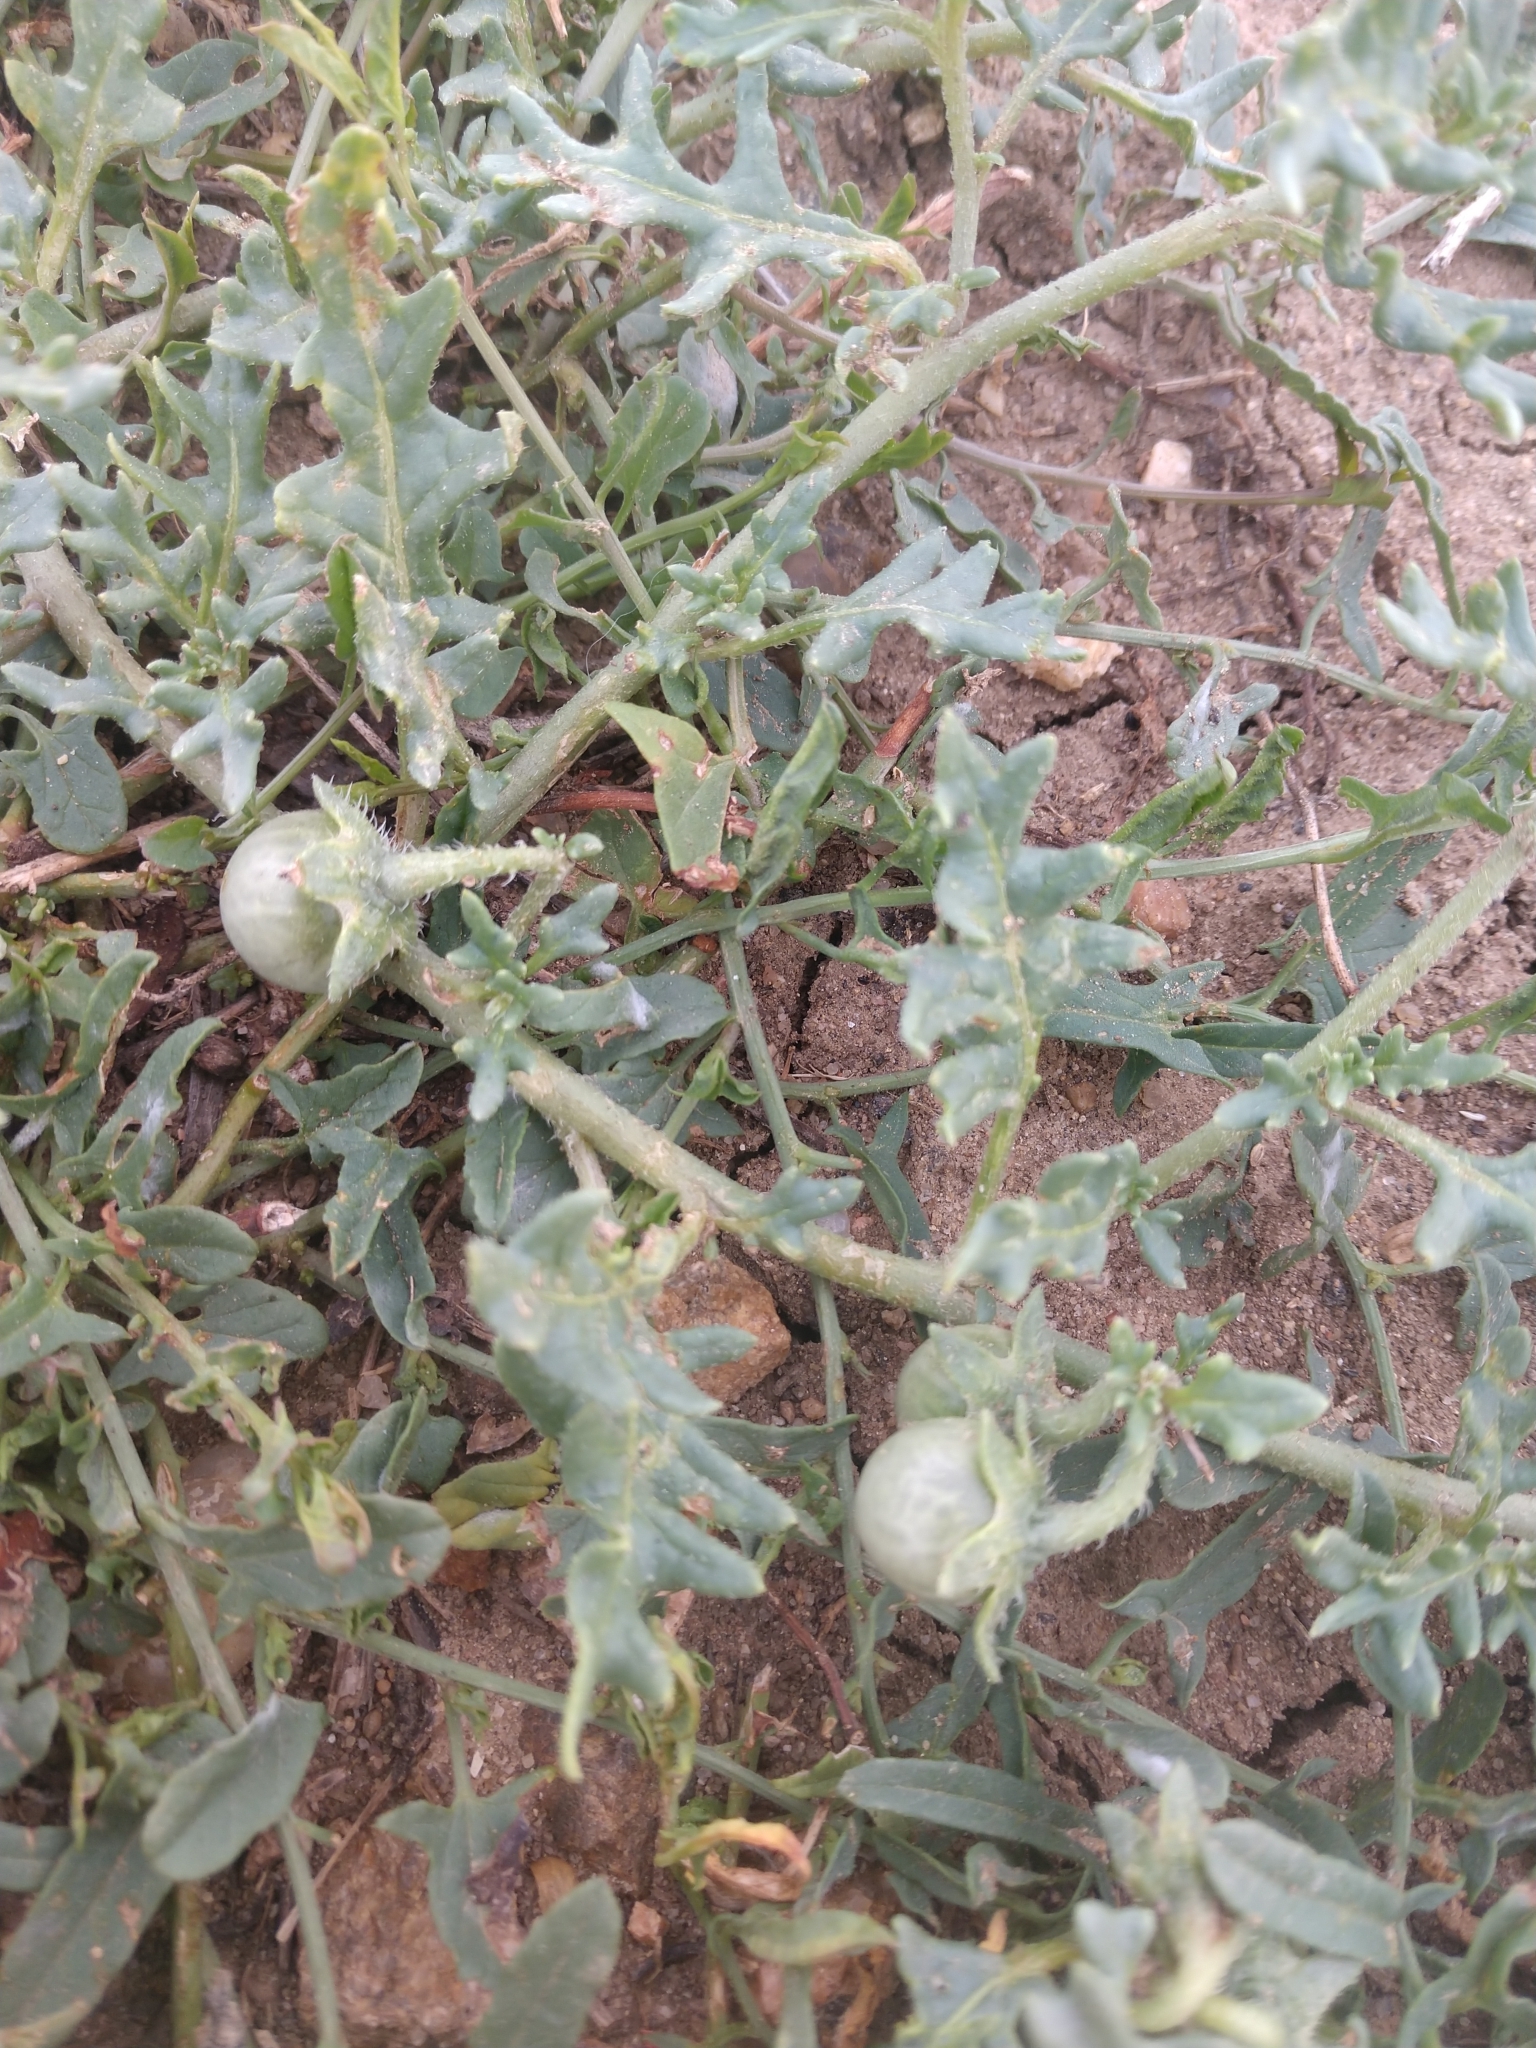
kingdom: Plantae
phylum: Tracheophyta
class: Magnoliopsida
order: Solanales
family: Solanaceae
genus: Solanum
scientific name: Solanum triflorum
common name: Small nightshade
